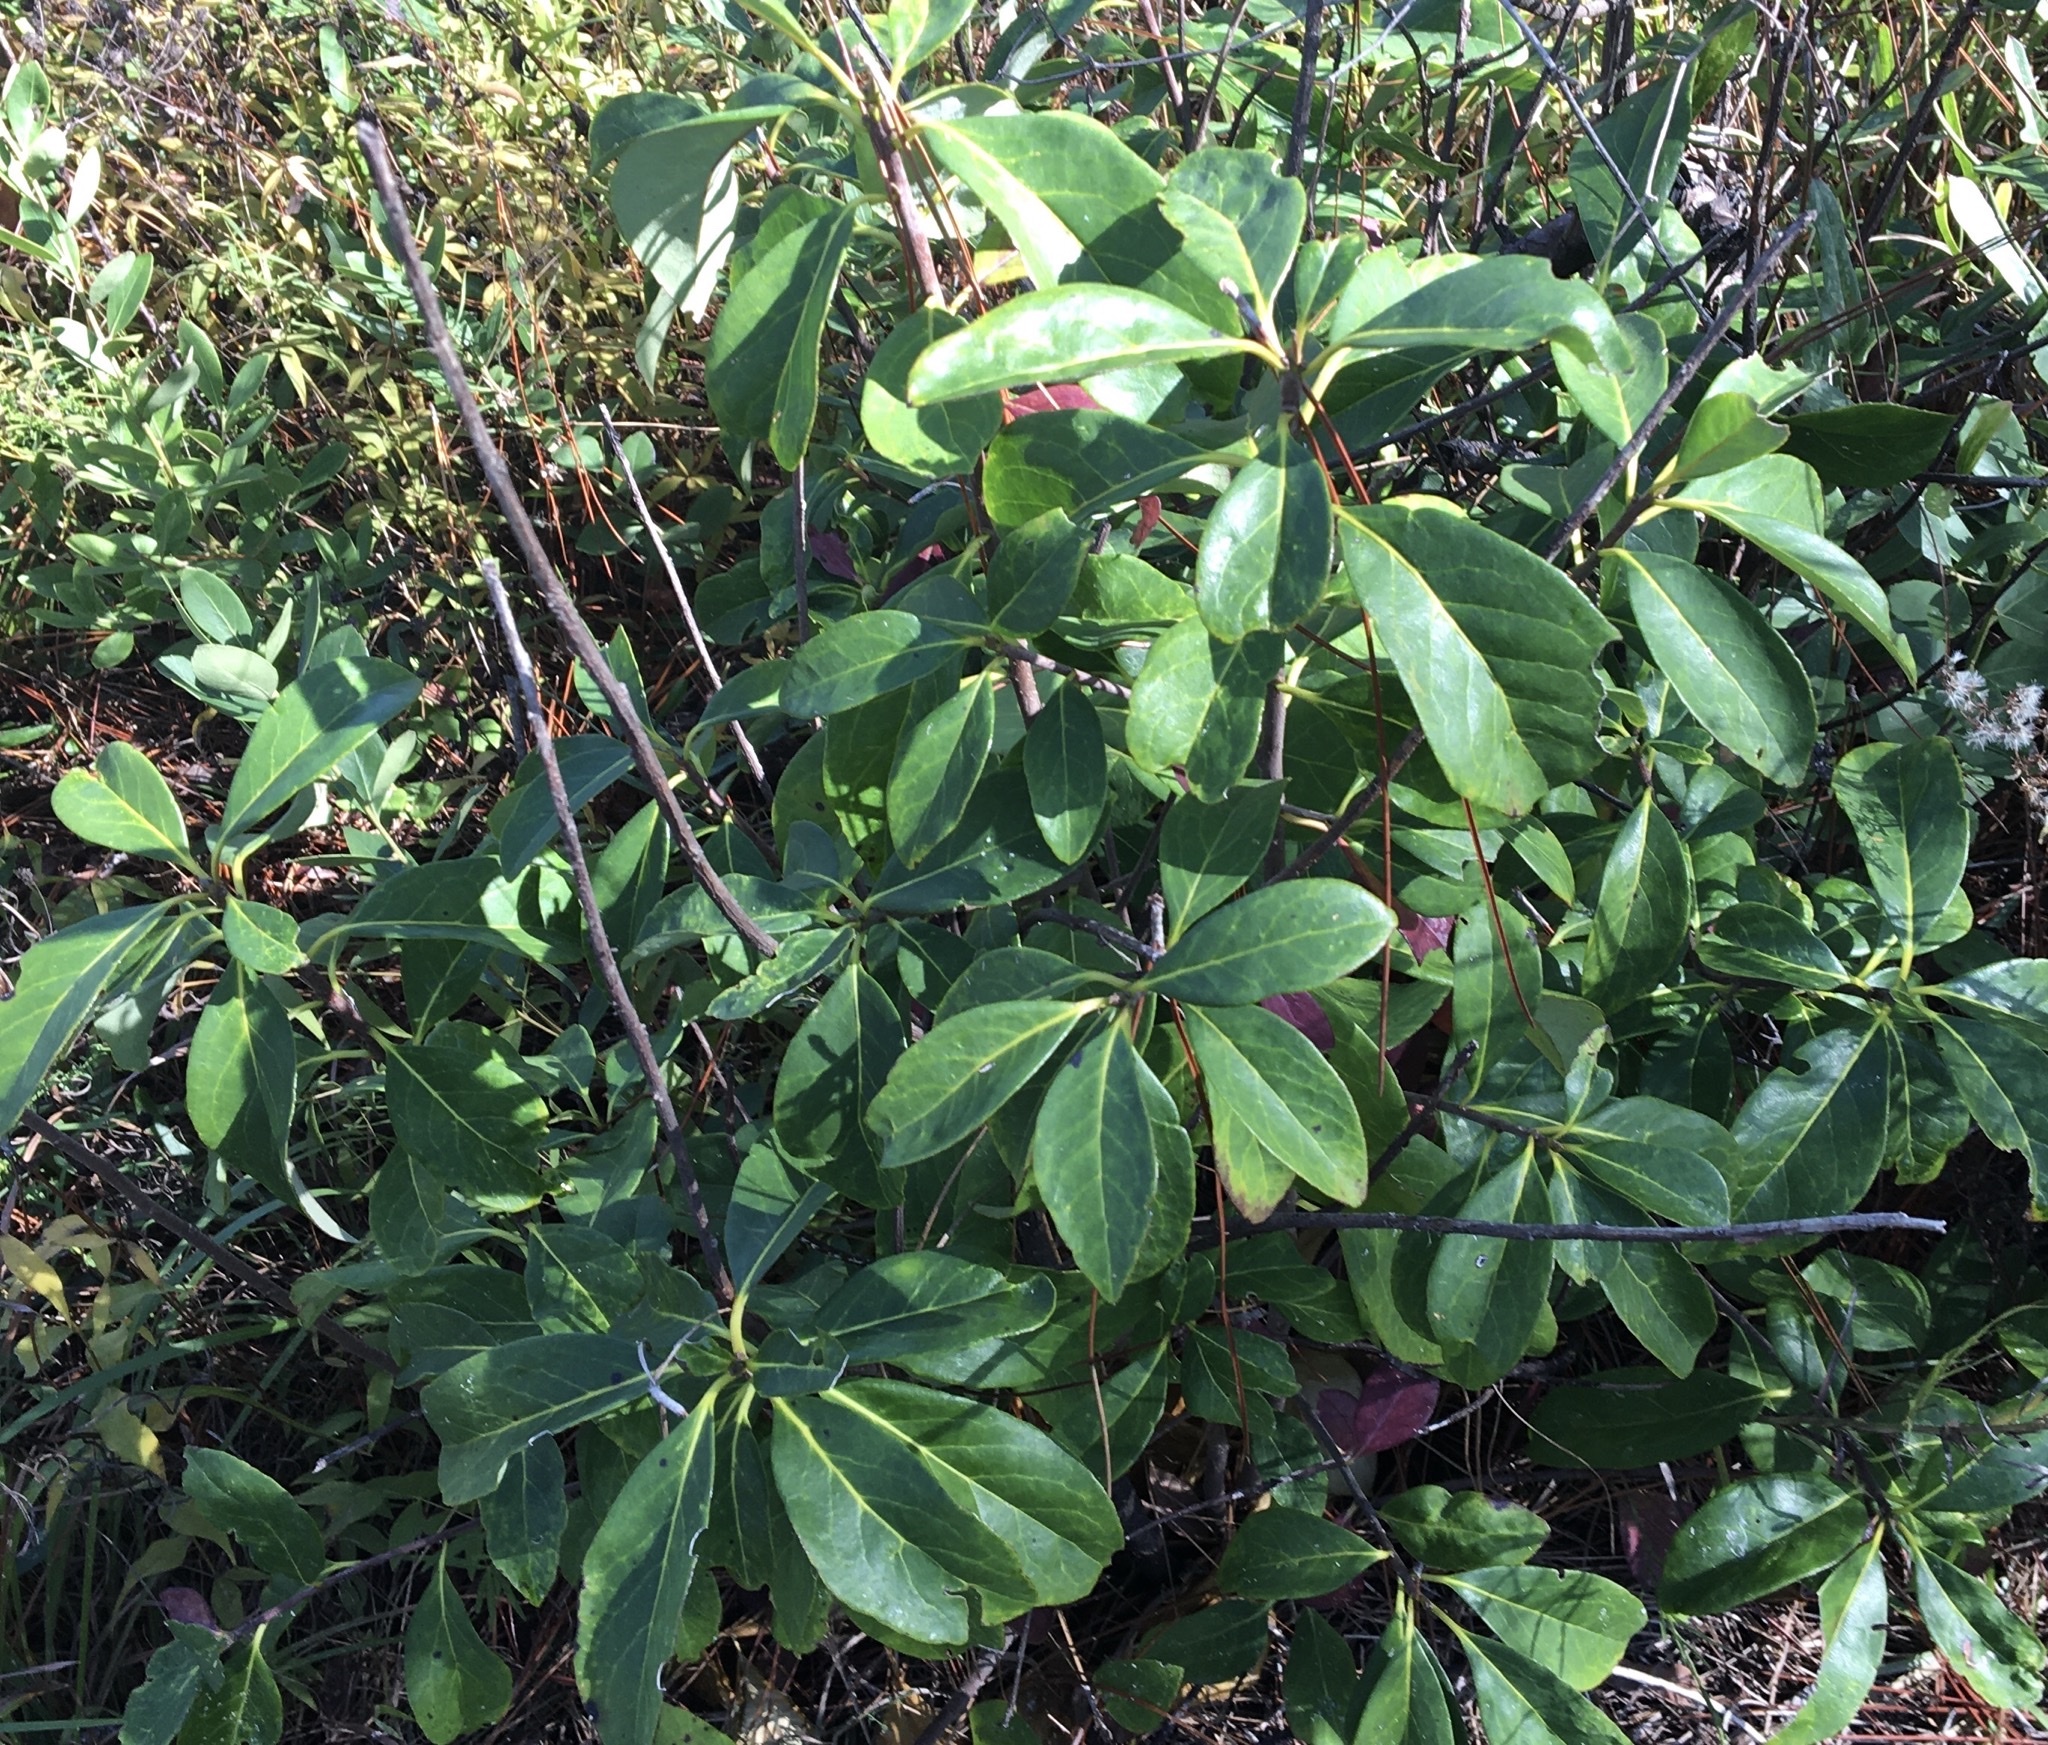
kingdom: Plantae
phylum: Tracheophyta
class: Magnoliopsida
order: Ericales
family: Symplocaceae
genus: Symplocos
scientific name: Symplocos tinctoria
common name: Horse-sugar
